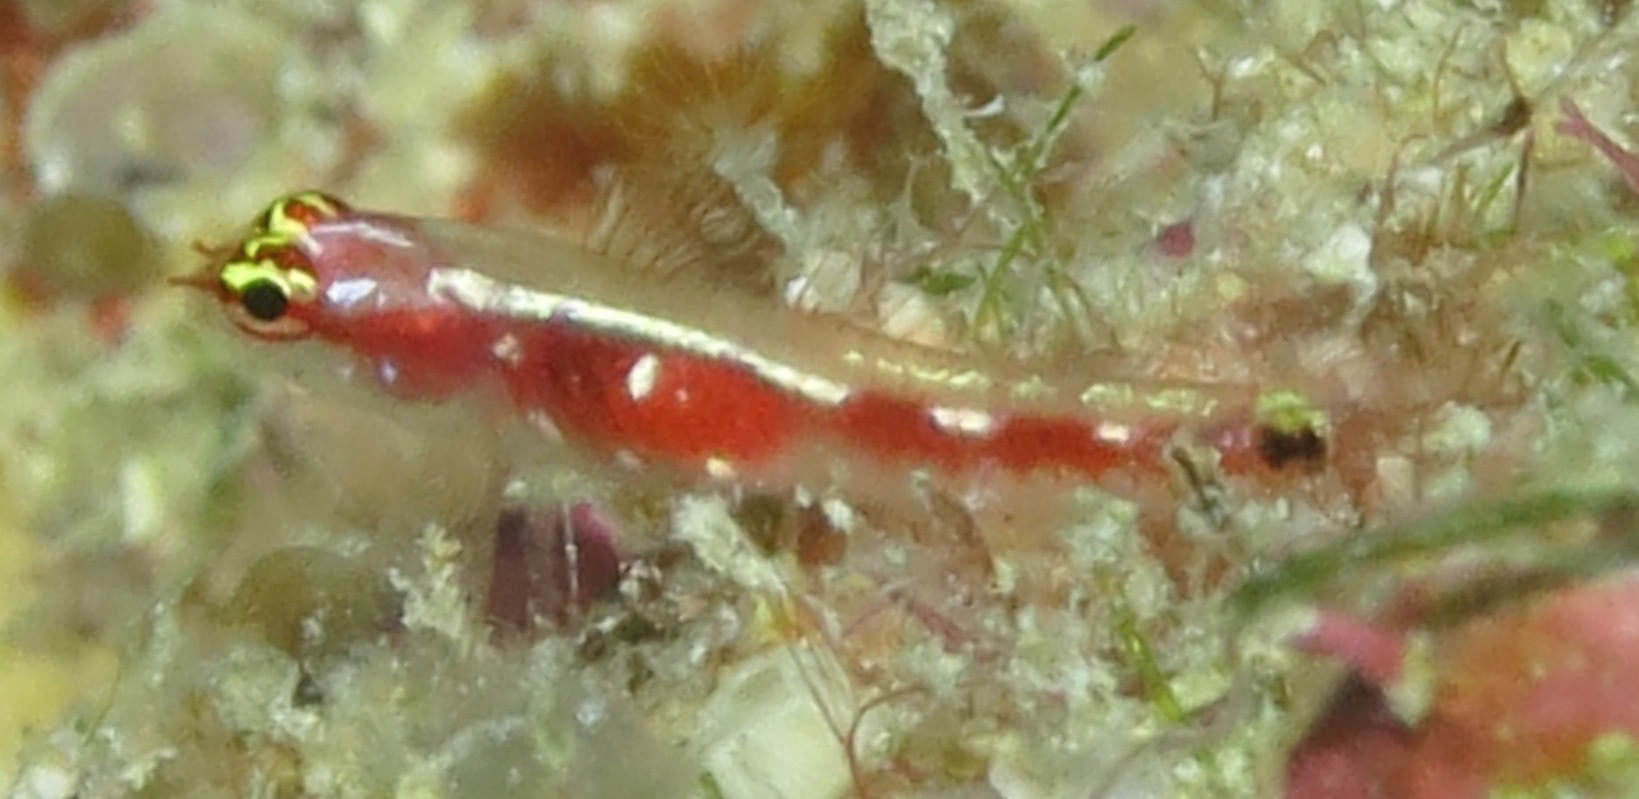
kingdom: Animalia
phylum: Chordata
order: Perciformes
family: Gobiidae
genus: Eviota
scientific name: Eviota oculineata
